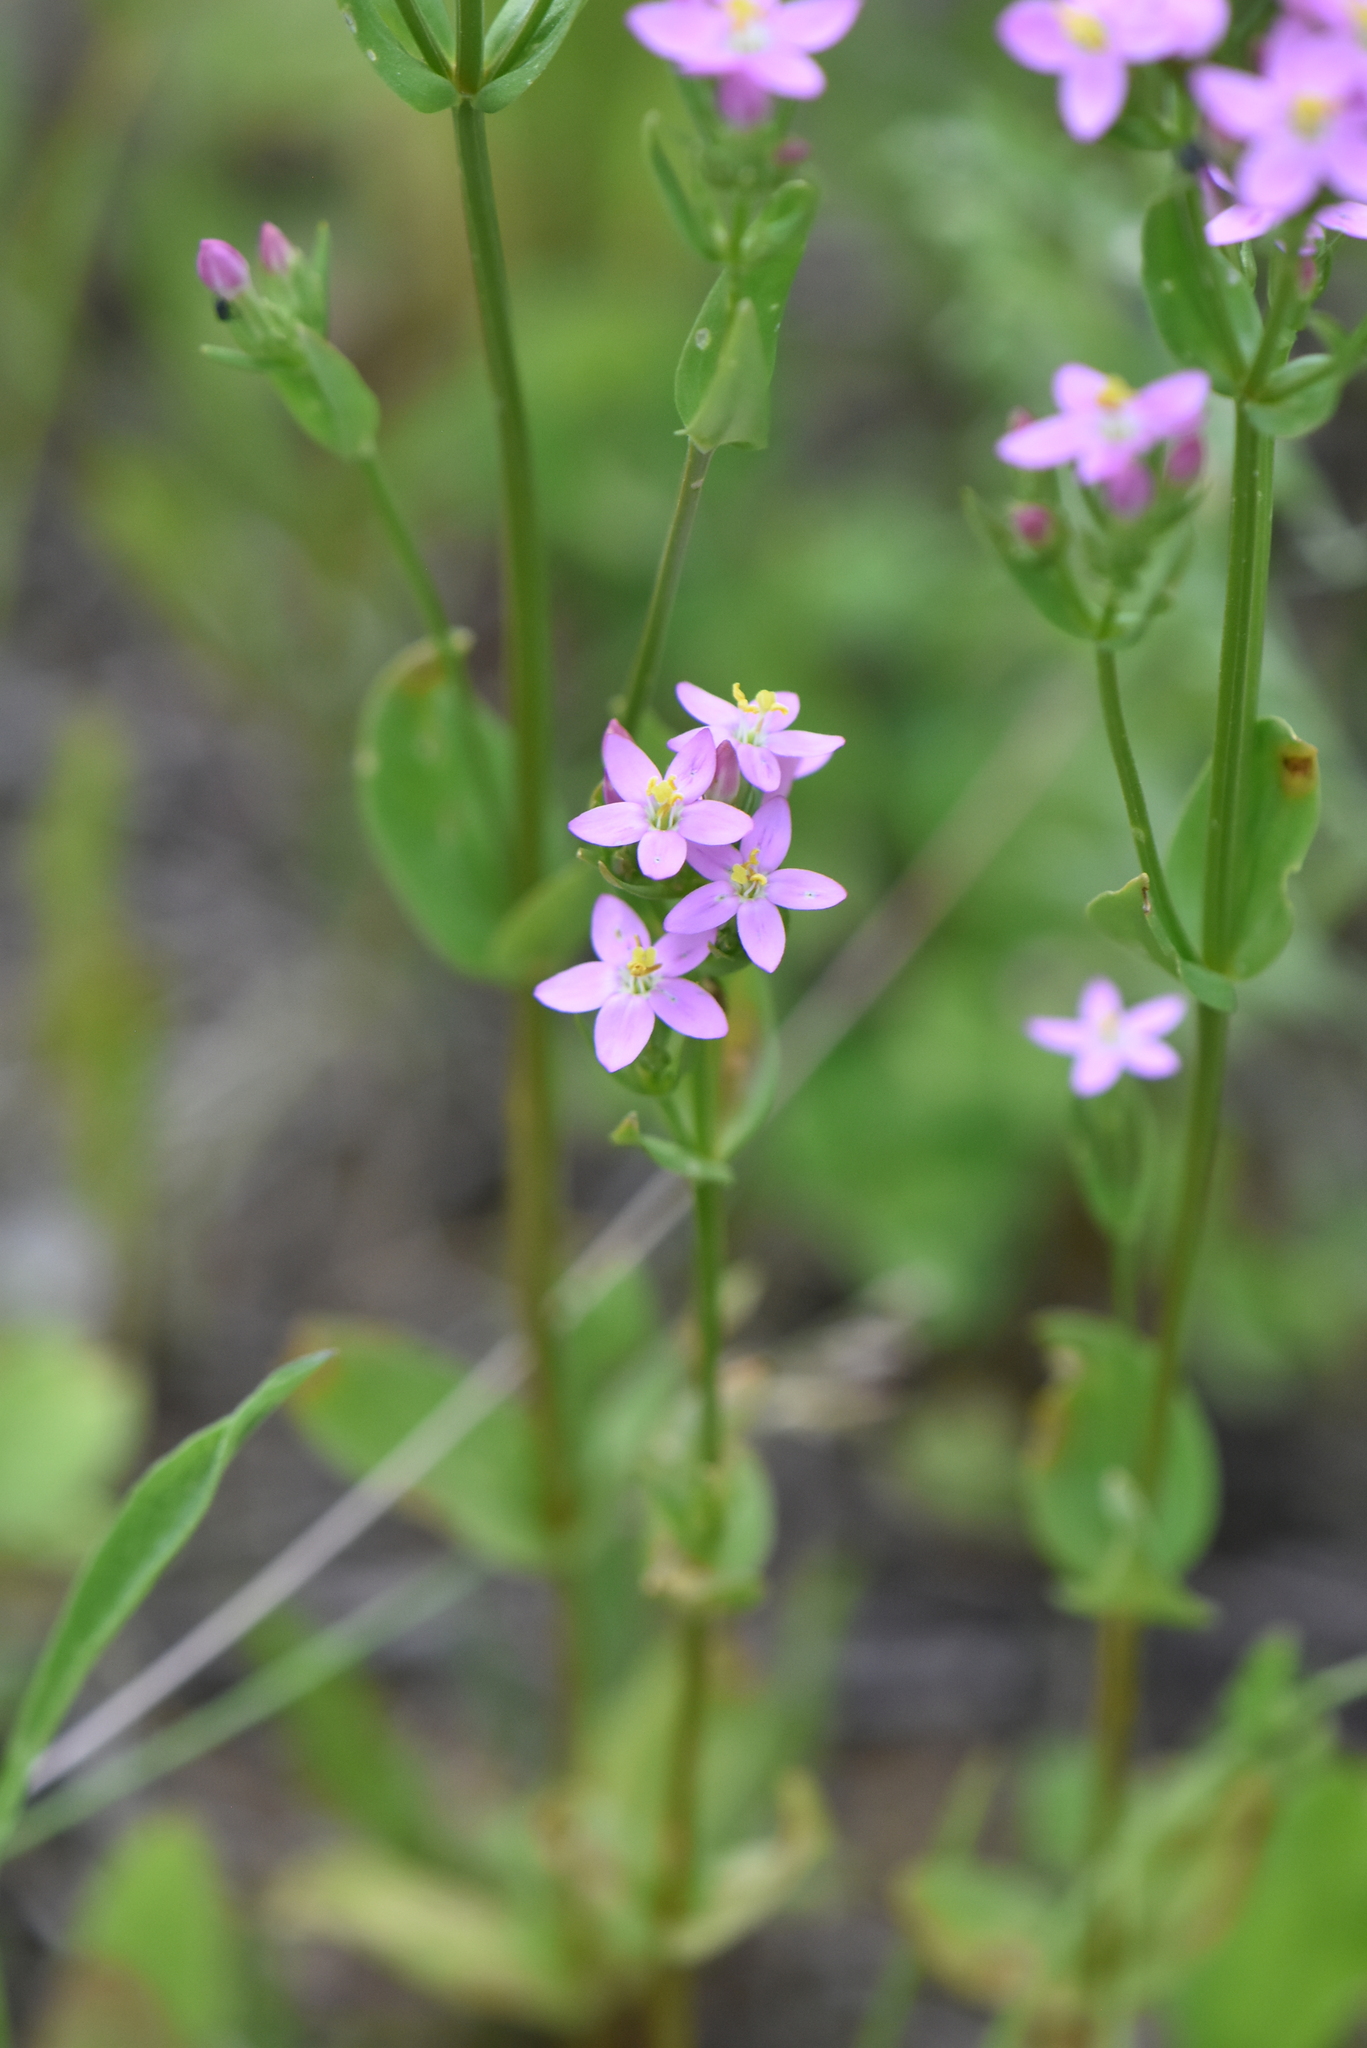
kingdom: Plantae
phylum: Tracheophyta
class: Magnoliopsida
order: Gentianales
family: Gentianaceae
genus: Centaurium
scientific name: Centaurium erythraea
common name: Common centaury
